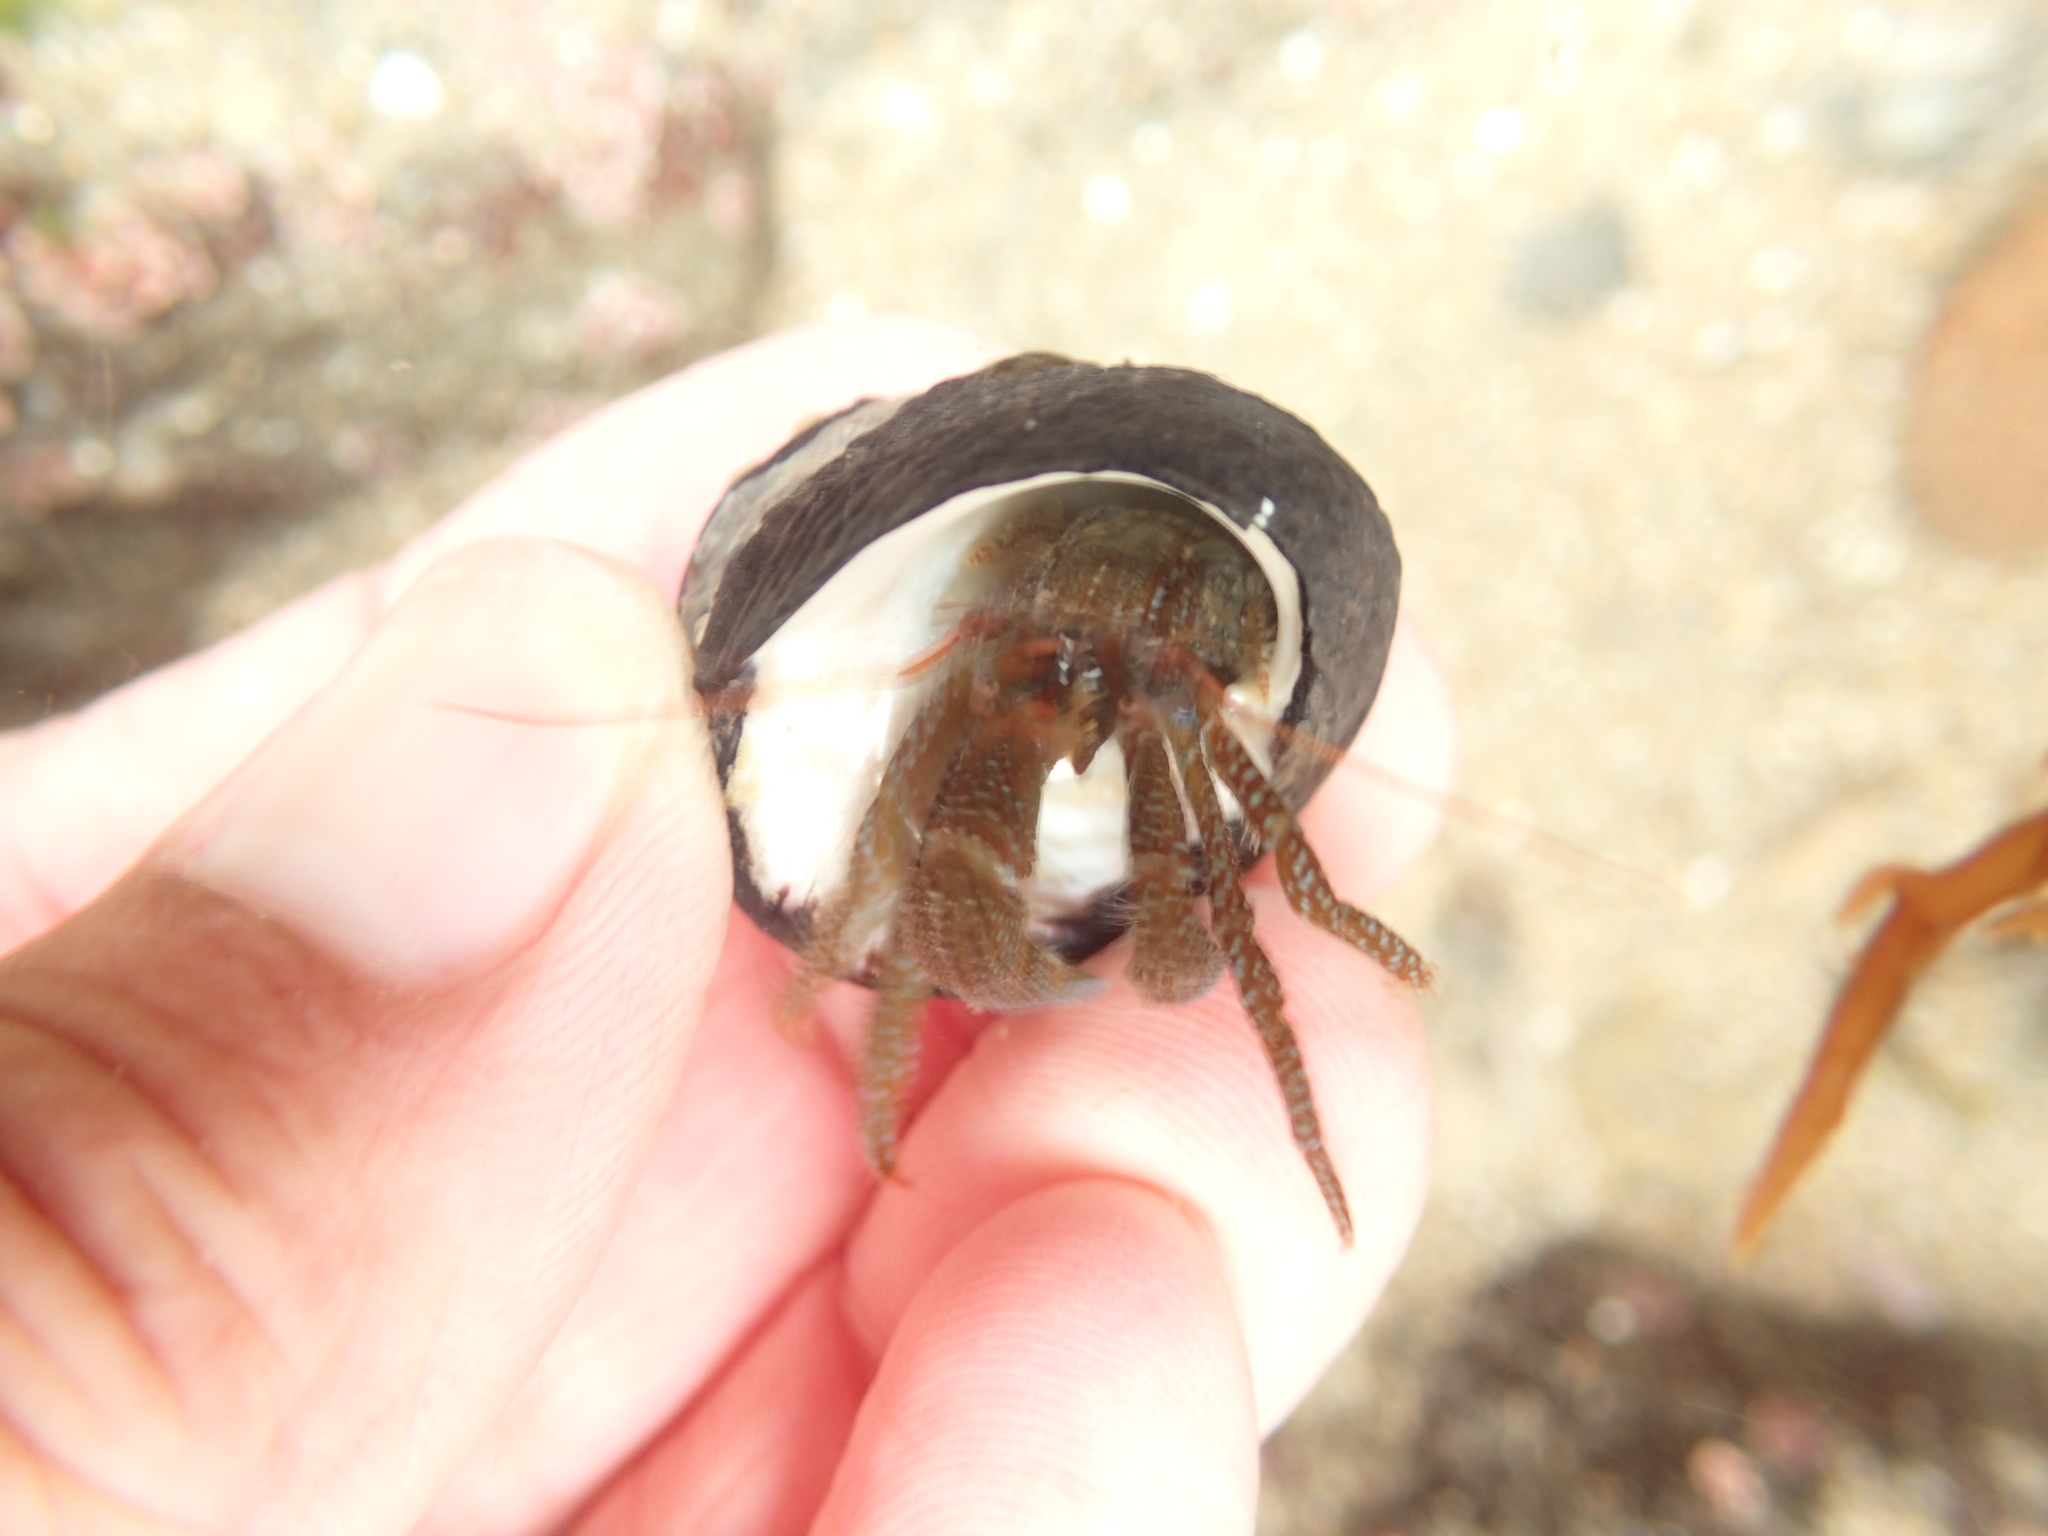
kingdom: Animalia
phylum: Arthropoda
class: Malacostraca
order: Decapoda
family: Paguridae
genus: Pagurus
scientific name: Pagurus granosimanus
